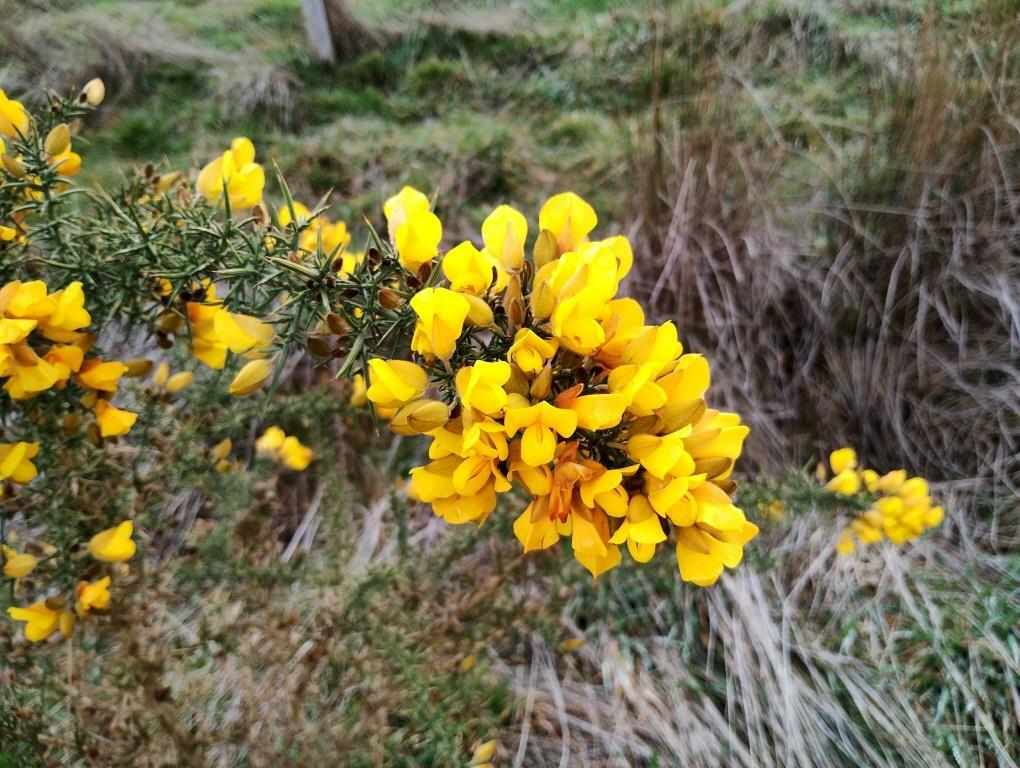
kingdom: Plantae
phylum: Tracheophyta
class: Magnoliopsida
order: Fabales
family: Fabaceae
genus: Ulex
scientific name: Ulex europaeus
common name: Common gorse
